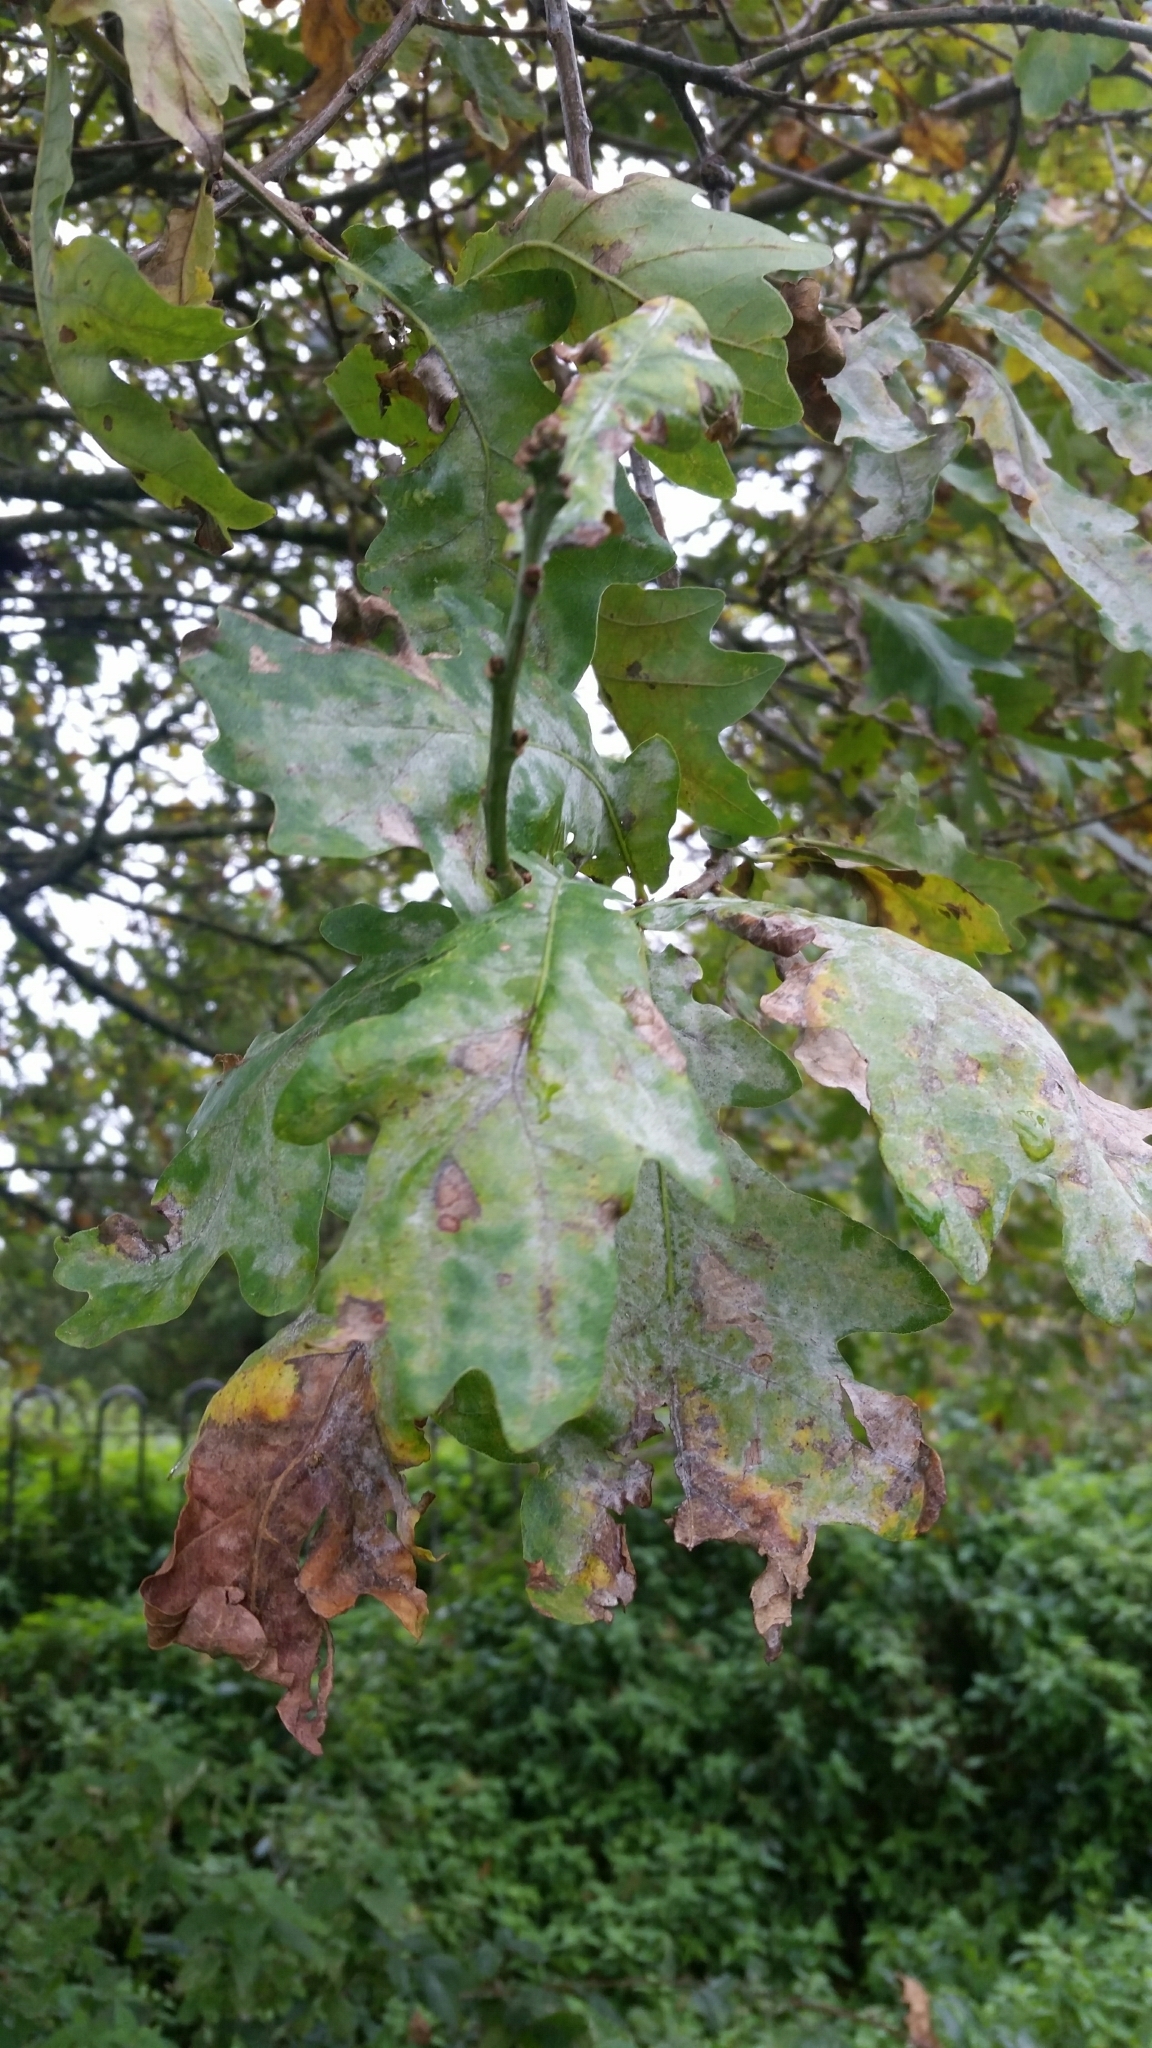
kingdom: Fungi
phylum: Ascomycota
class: Leotiomycetes
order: Helotiales
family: Erysiphaceae
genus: Erysiphe
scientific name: Erysiphe alphitoides
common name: Oak mildew
